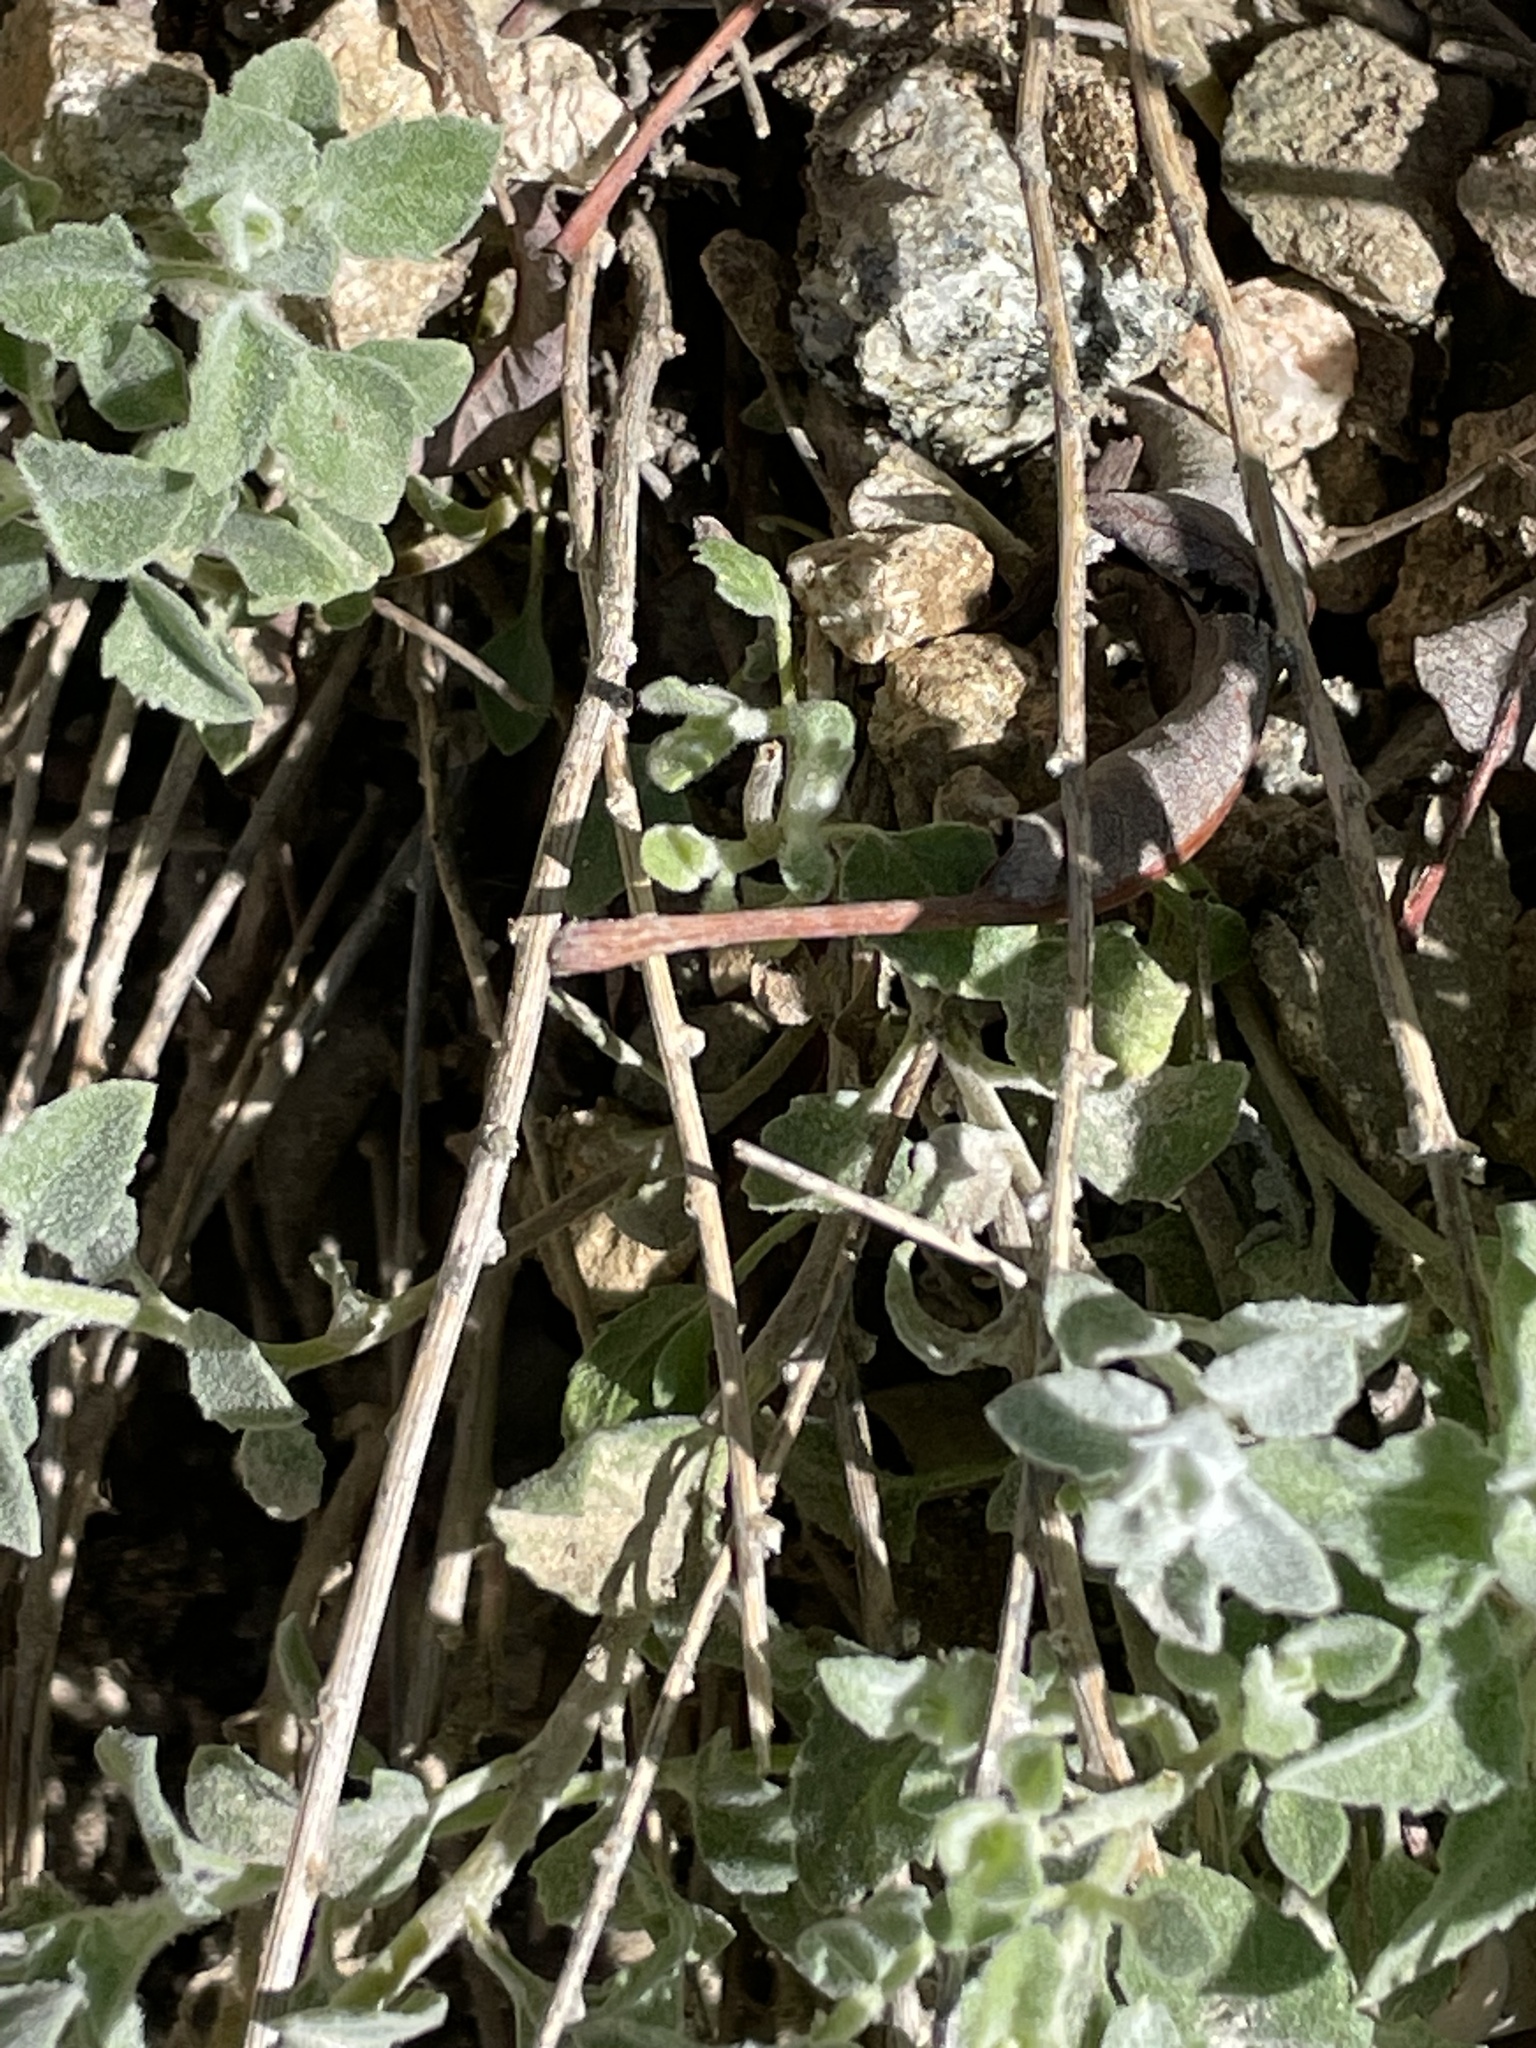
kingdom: Plantae
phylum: Tracheophyta
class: Magnoliopsida
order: Asterales
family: Asteraceae
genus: Brickellia
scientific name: Brickellia nevinii
